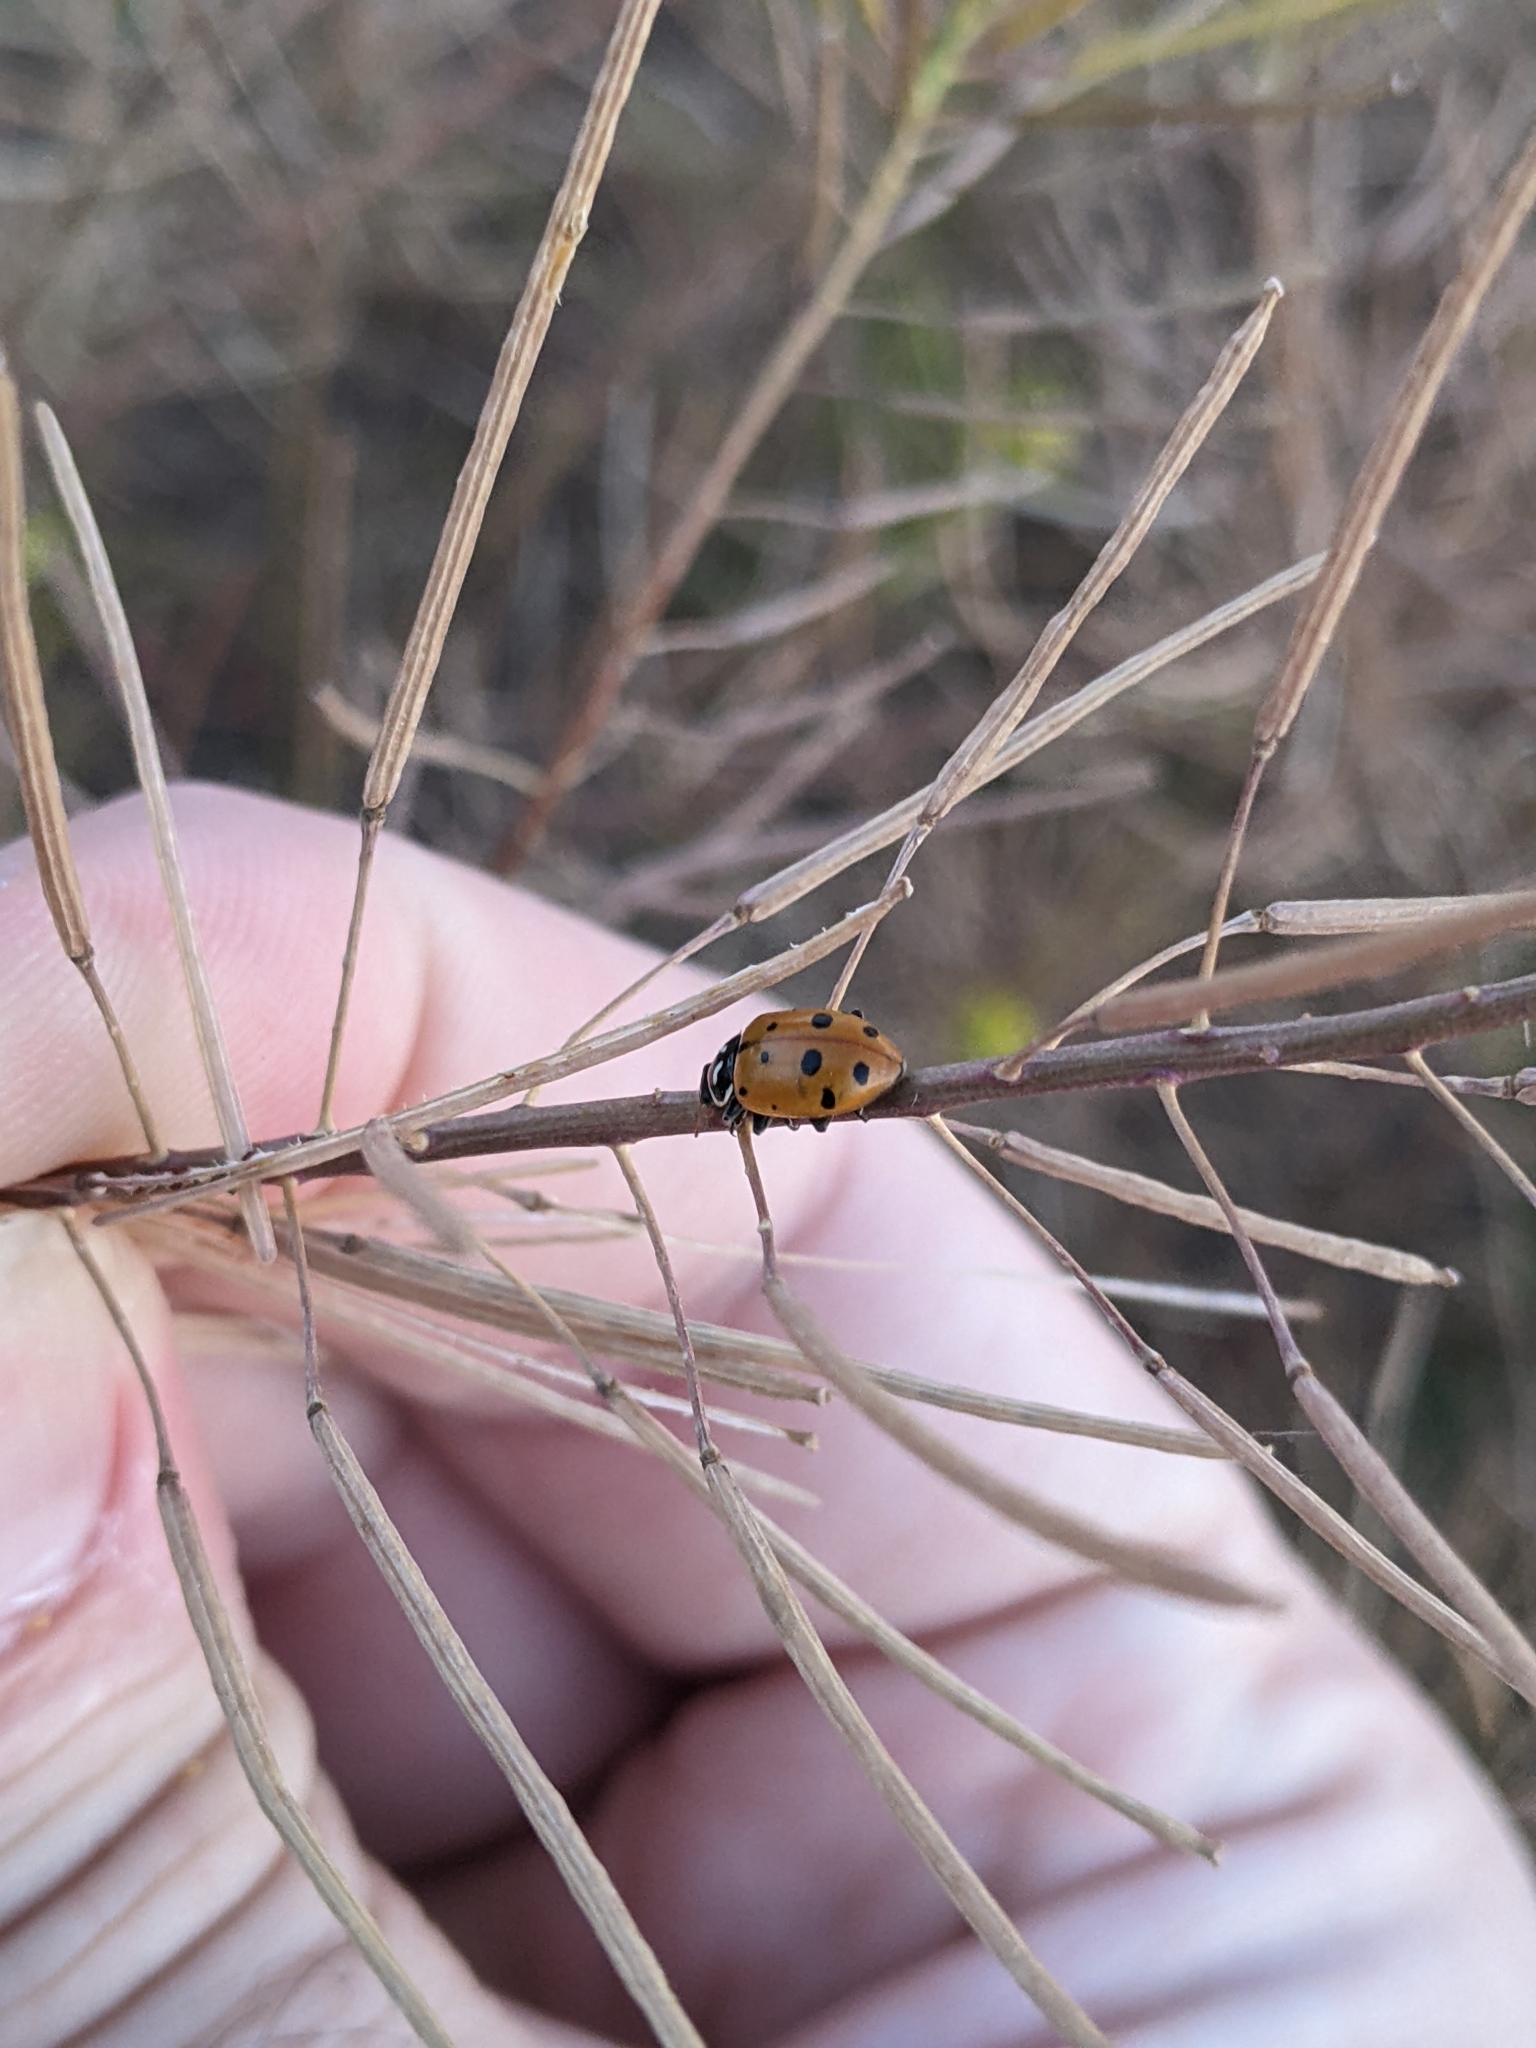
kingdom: Animalia
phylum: Arthropoda
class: Insecta
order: Coleoptera
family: Coccinellidae
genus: Hippodamia
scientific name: Hippodamia convergens
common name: Convergent lady beetle
